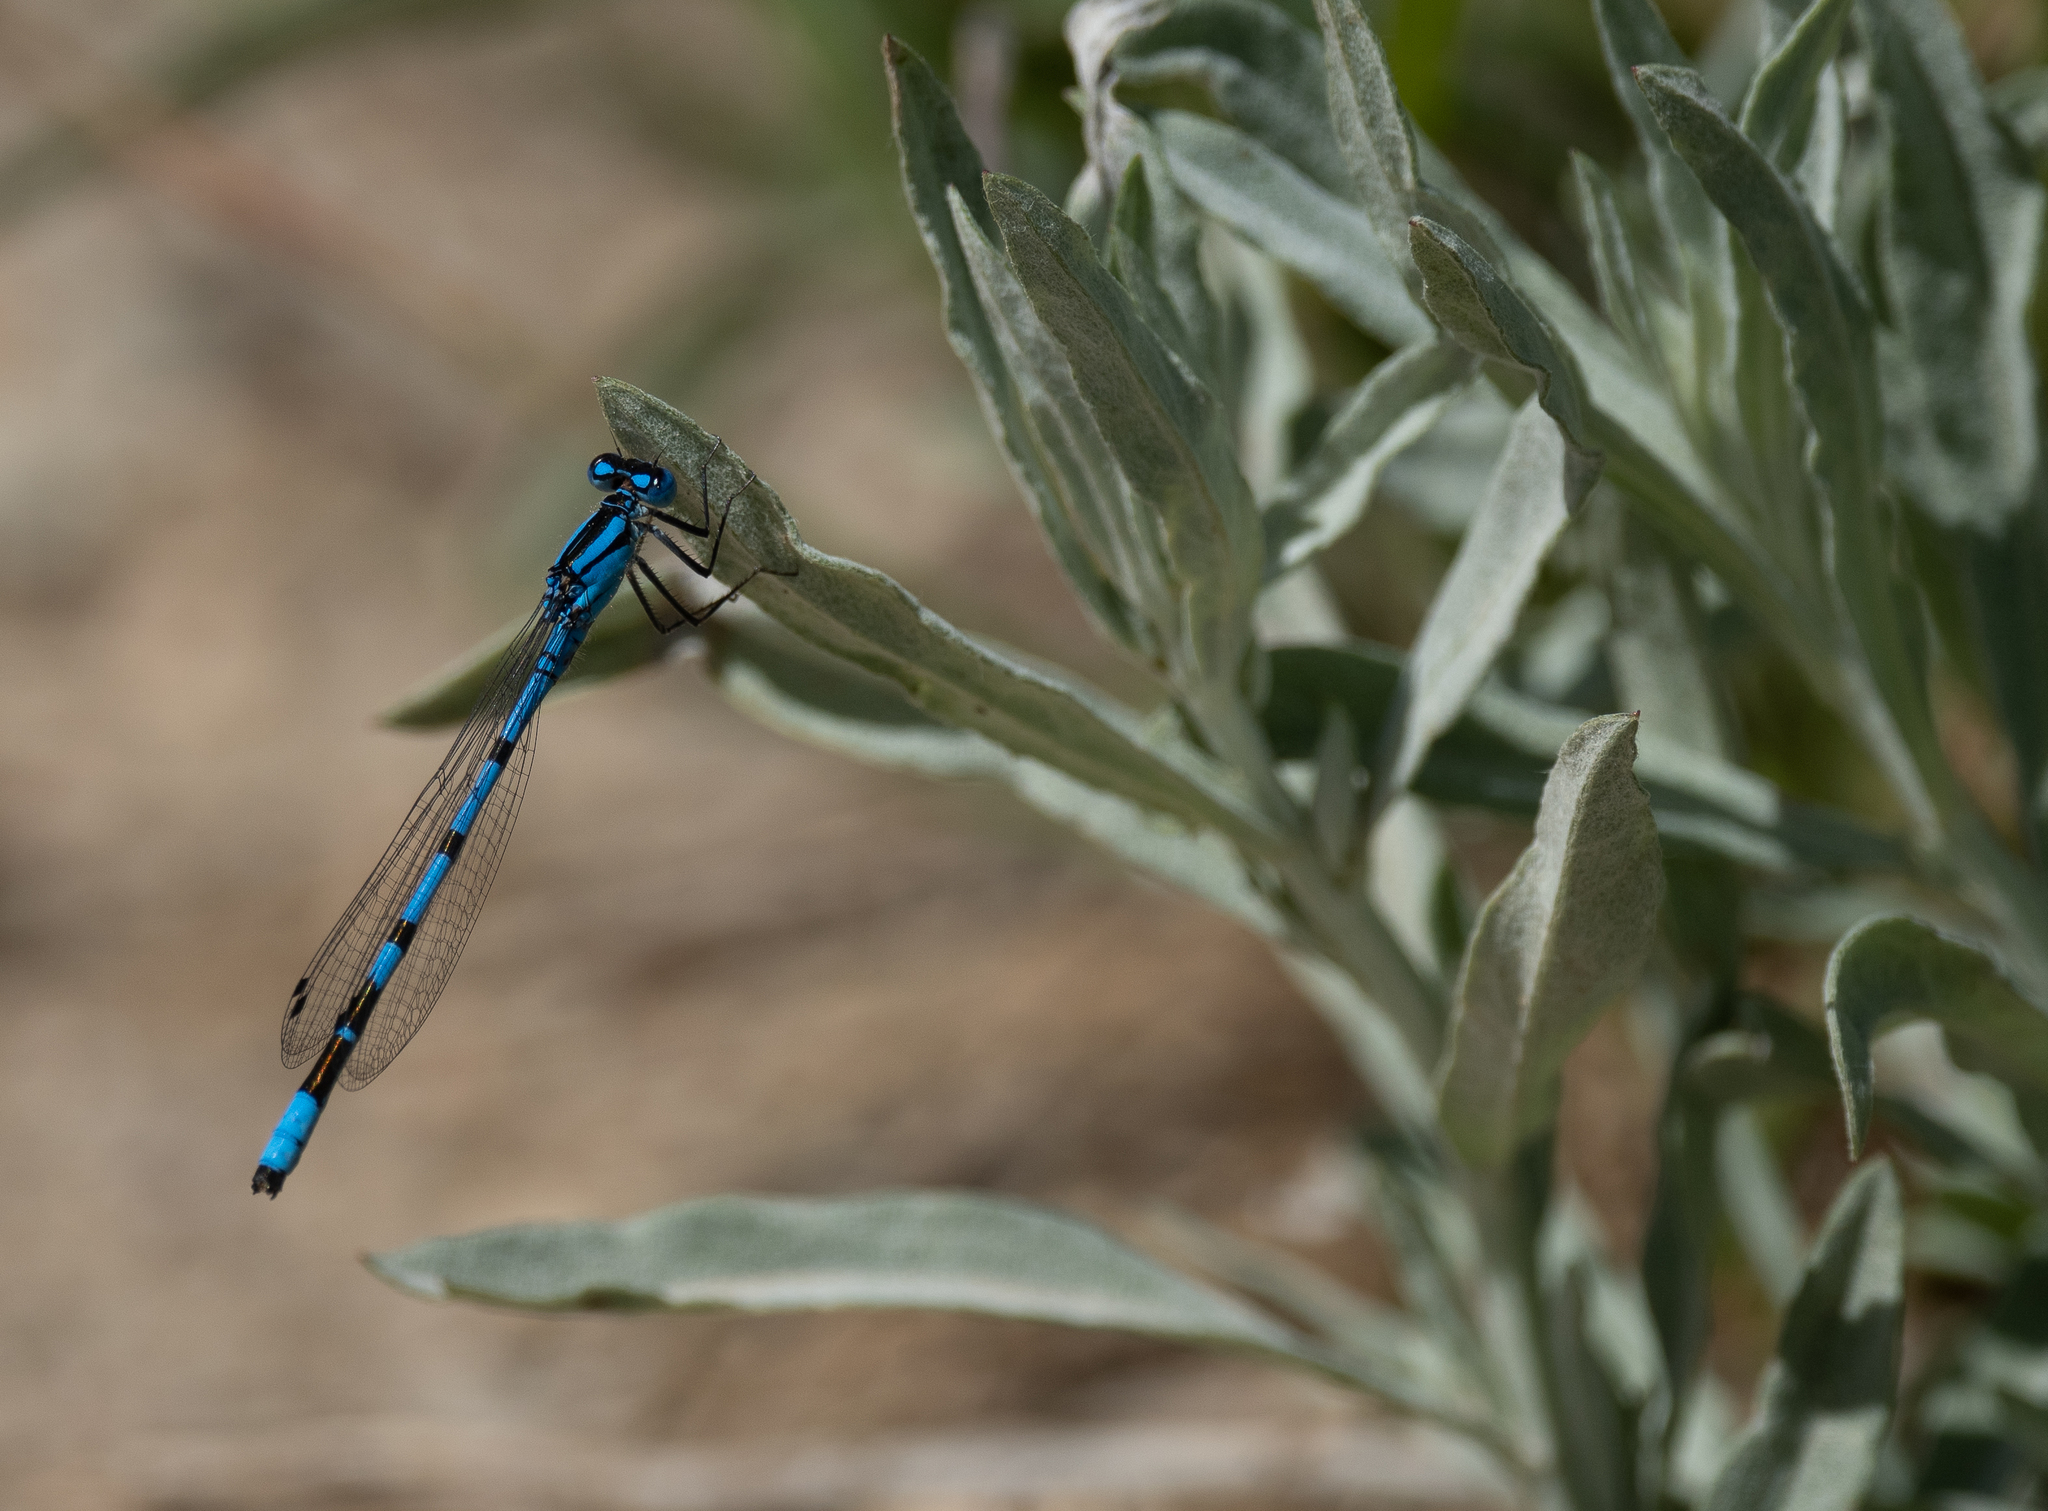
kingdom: Animalia
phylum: Arthropoda
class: Insecta
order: Odonata
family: Coenagrionidae
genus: Enallagma
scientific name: Enallagma boreale
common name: Boreal bluet
